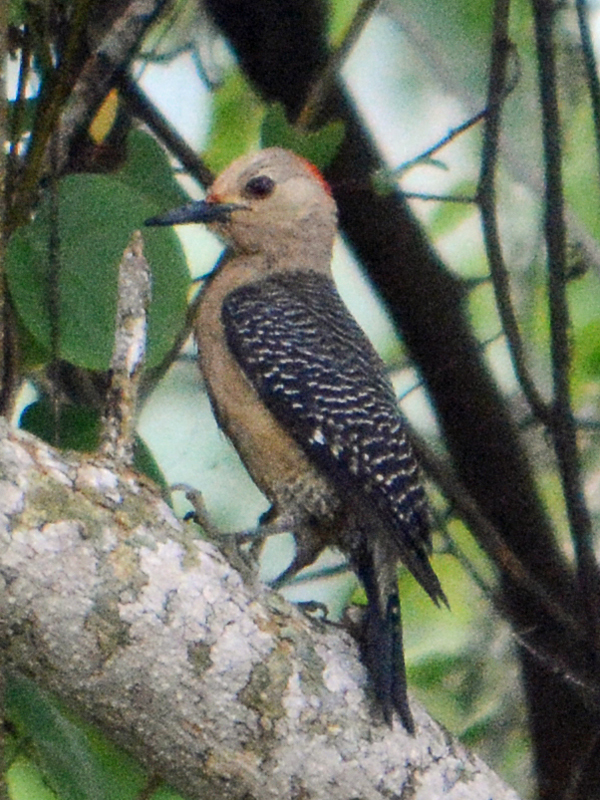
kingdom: Animalia
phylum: Chordata
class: Aves
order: Piciformes
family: Picidae
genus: Melanerpes
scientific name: Melanerpes aurifrons
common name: Golden-fronted woodpecker
